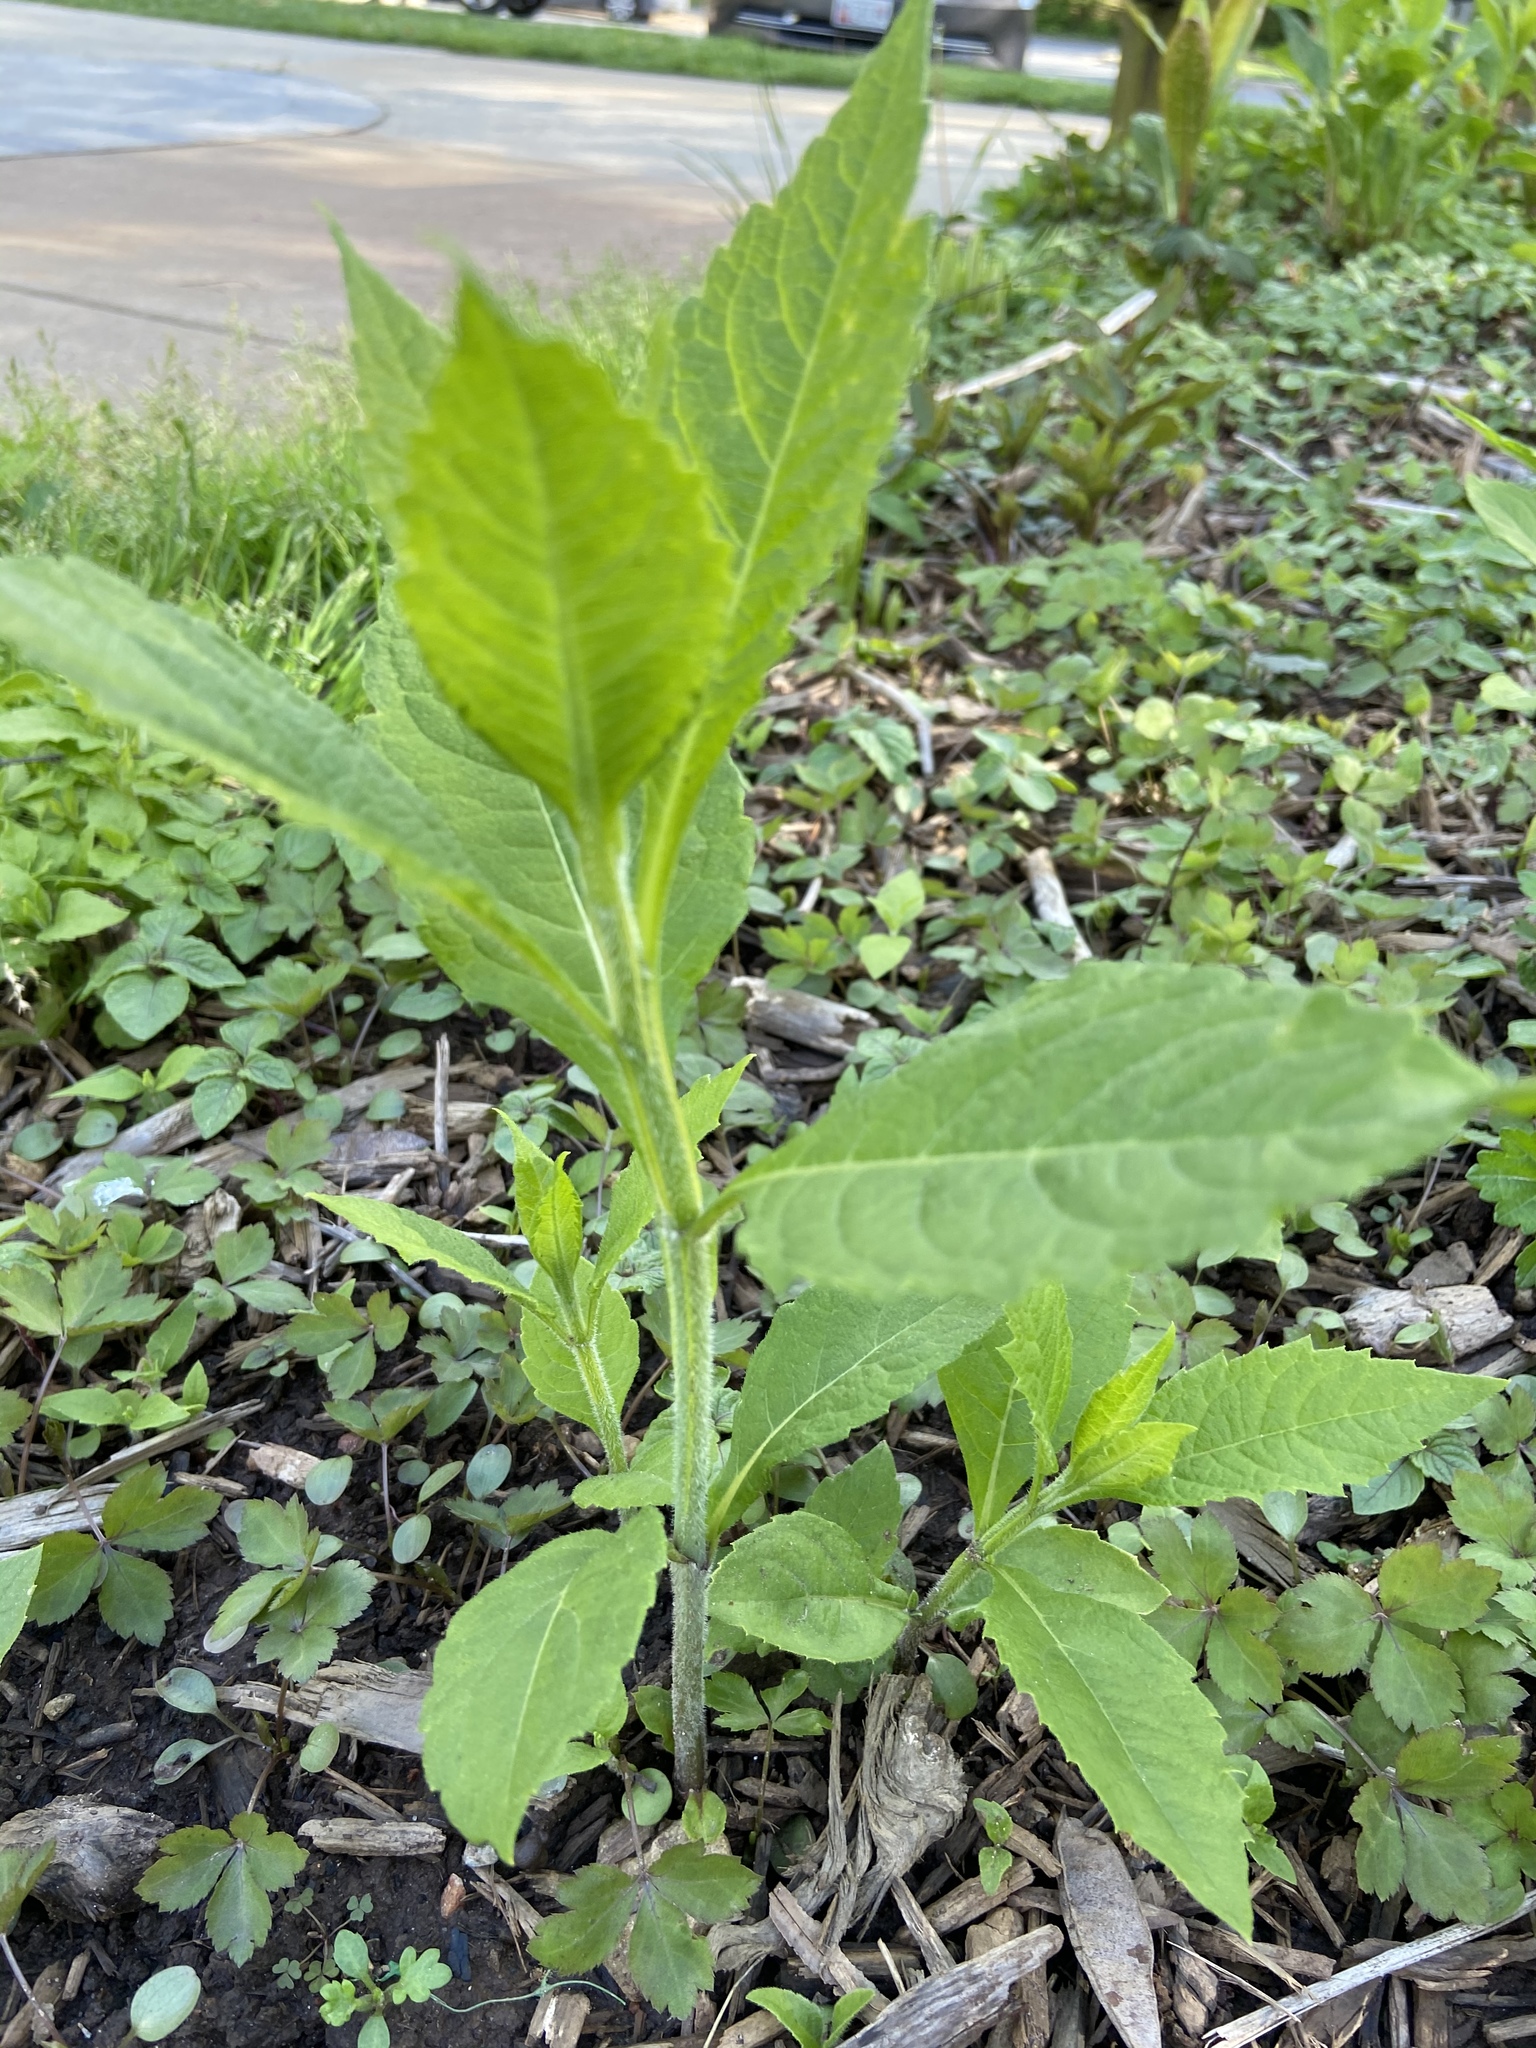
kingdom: Plantae
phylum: Tracheophyta
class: Magnoliopsida
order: Asterales
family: Asteraceae
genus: Verbesina
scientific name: Verbesina alternifolia
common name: Wingstem
